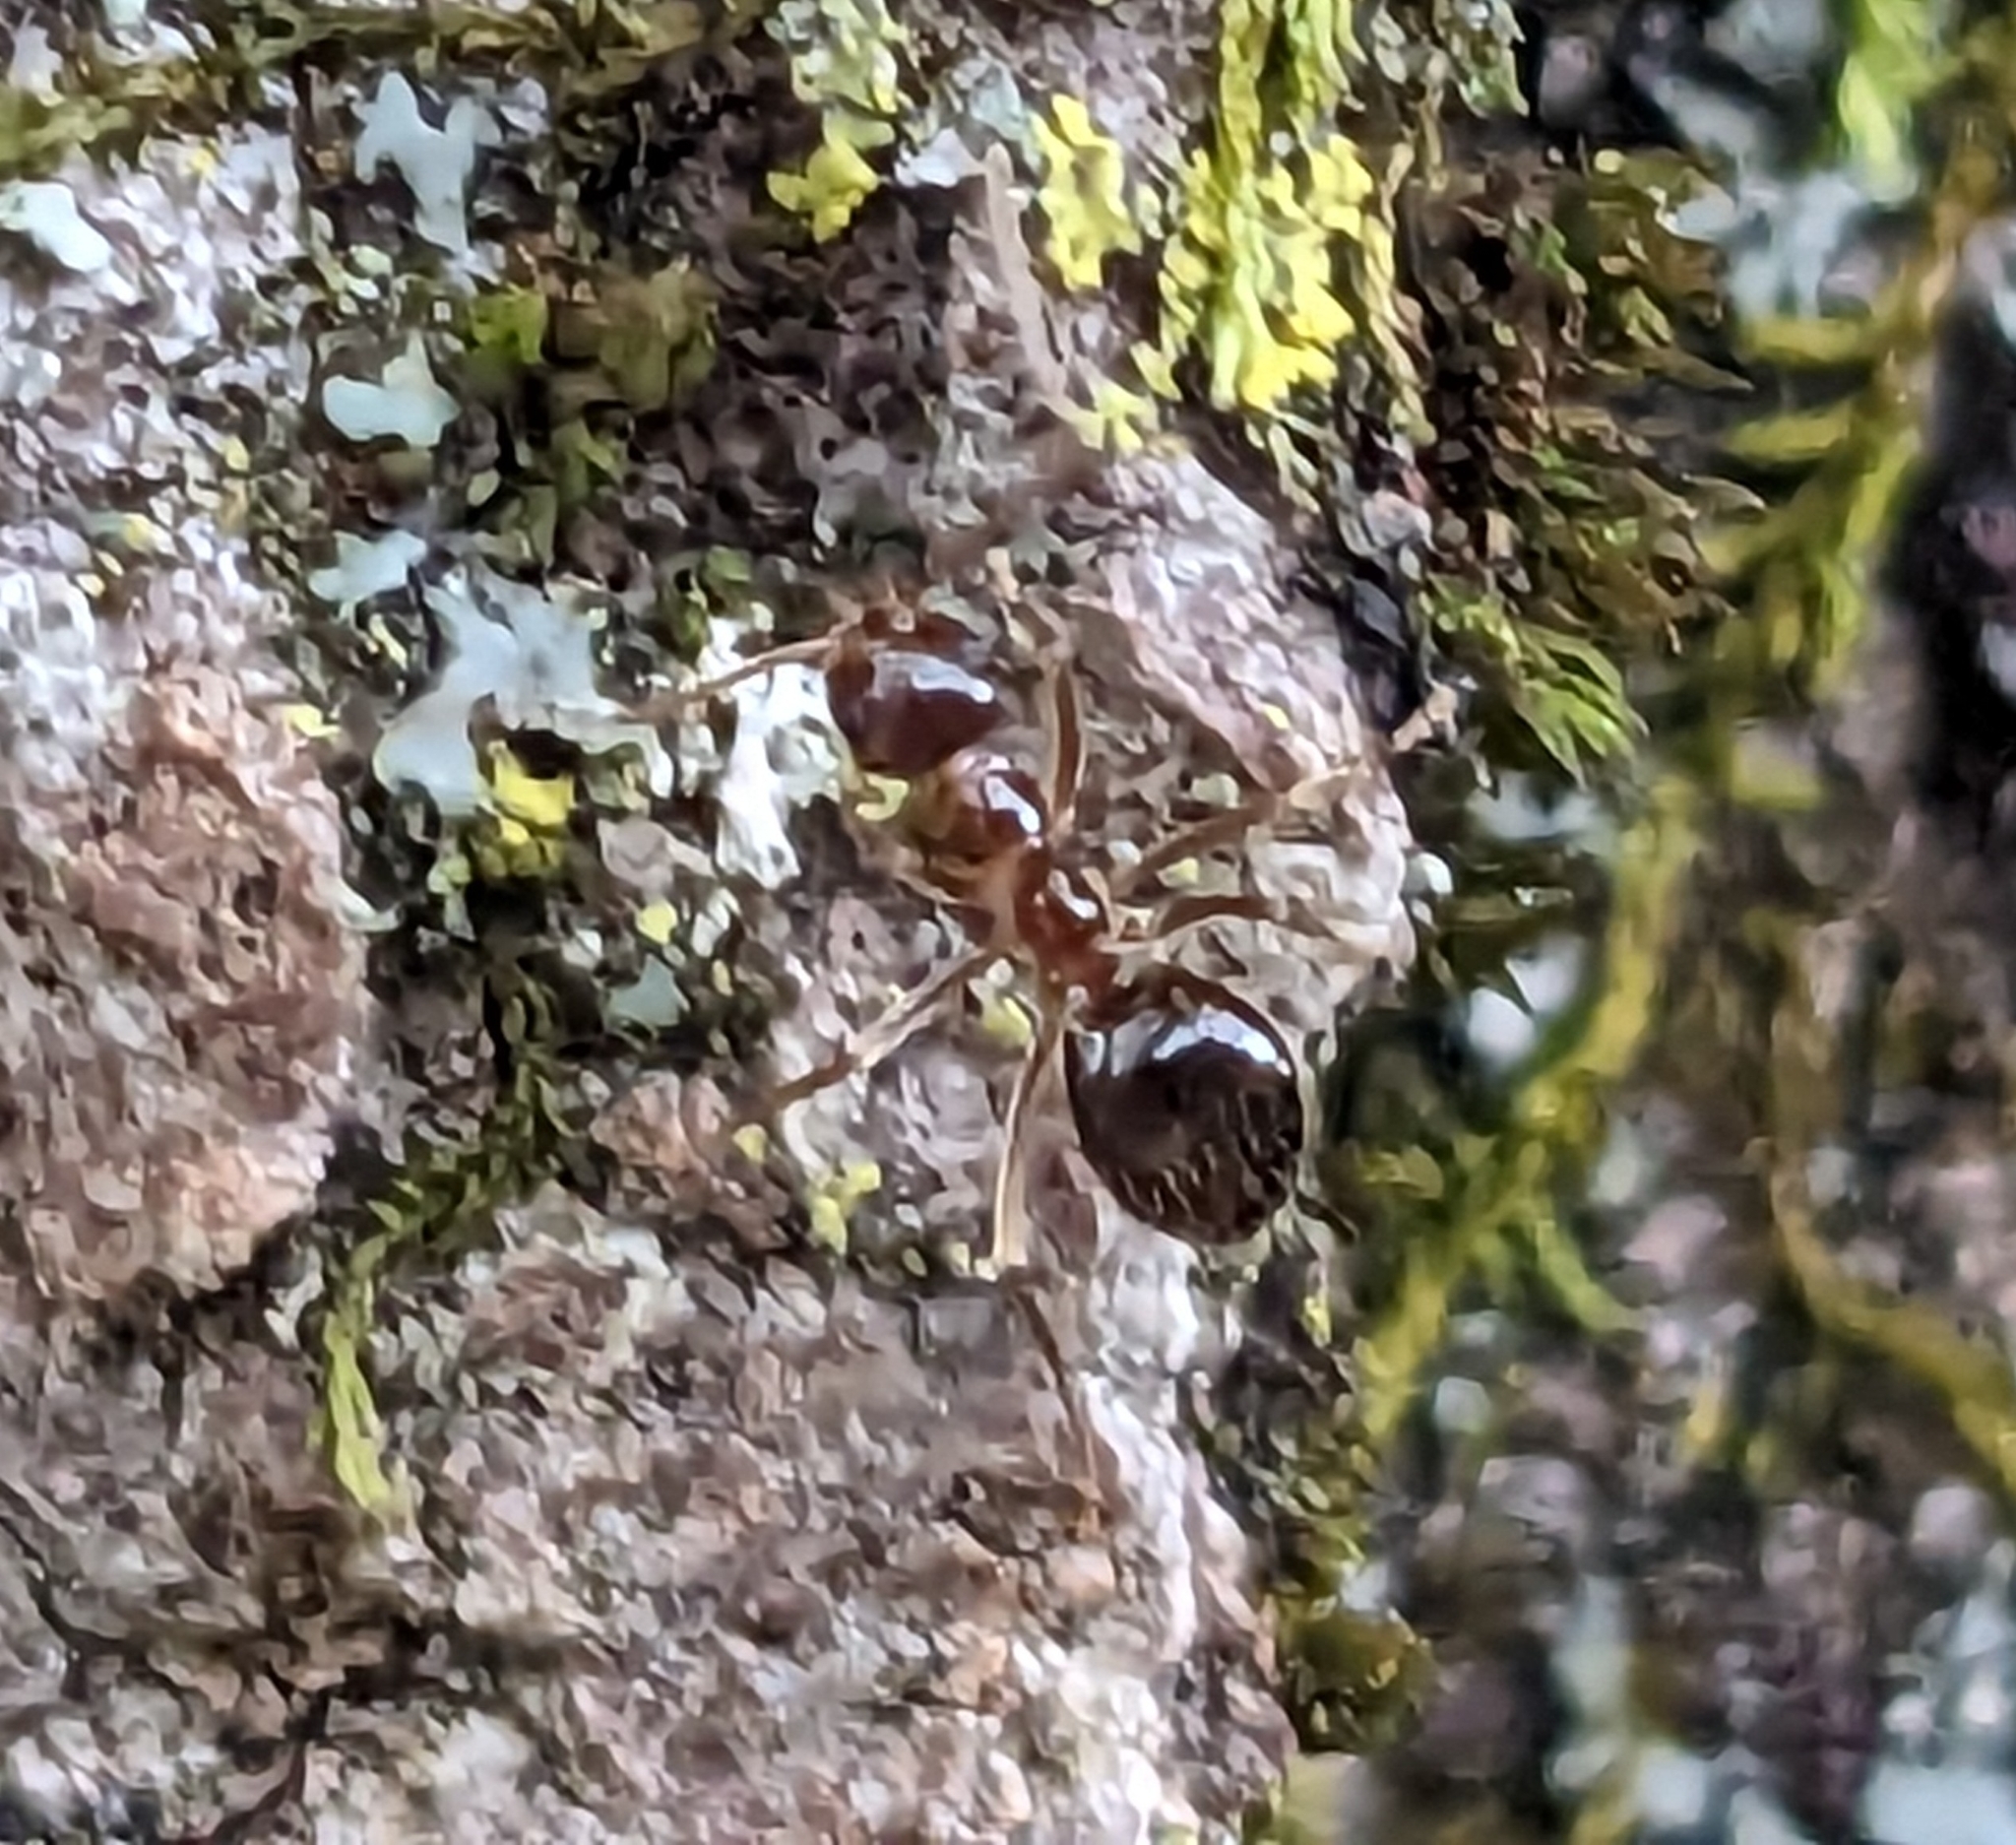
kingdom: Animalia
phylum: Arthropoda
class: Insecta
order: Hymenoptera
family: Formicidae
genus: Prenolepis
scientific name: Prenolepis imparis
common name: Small honey ant
